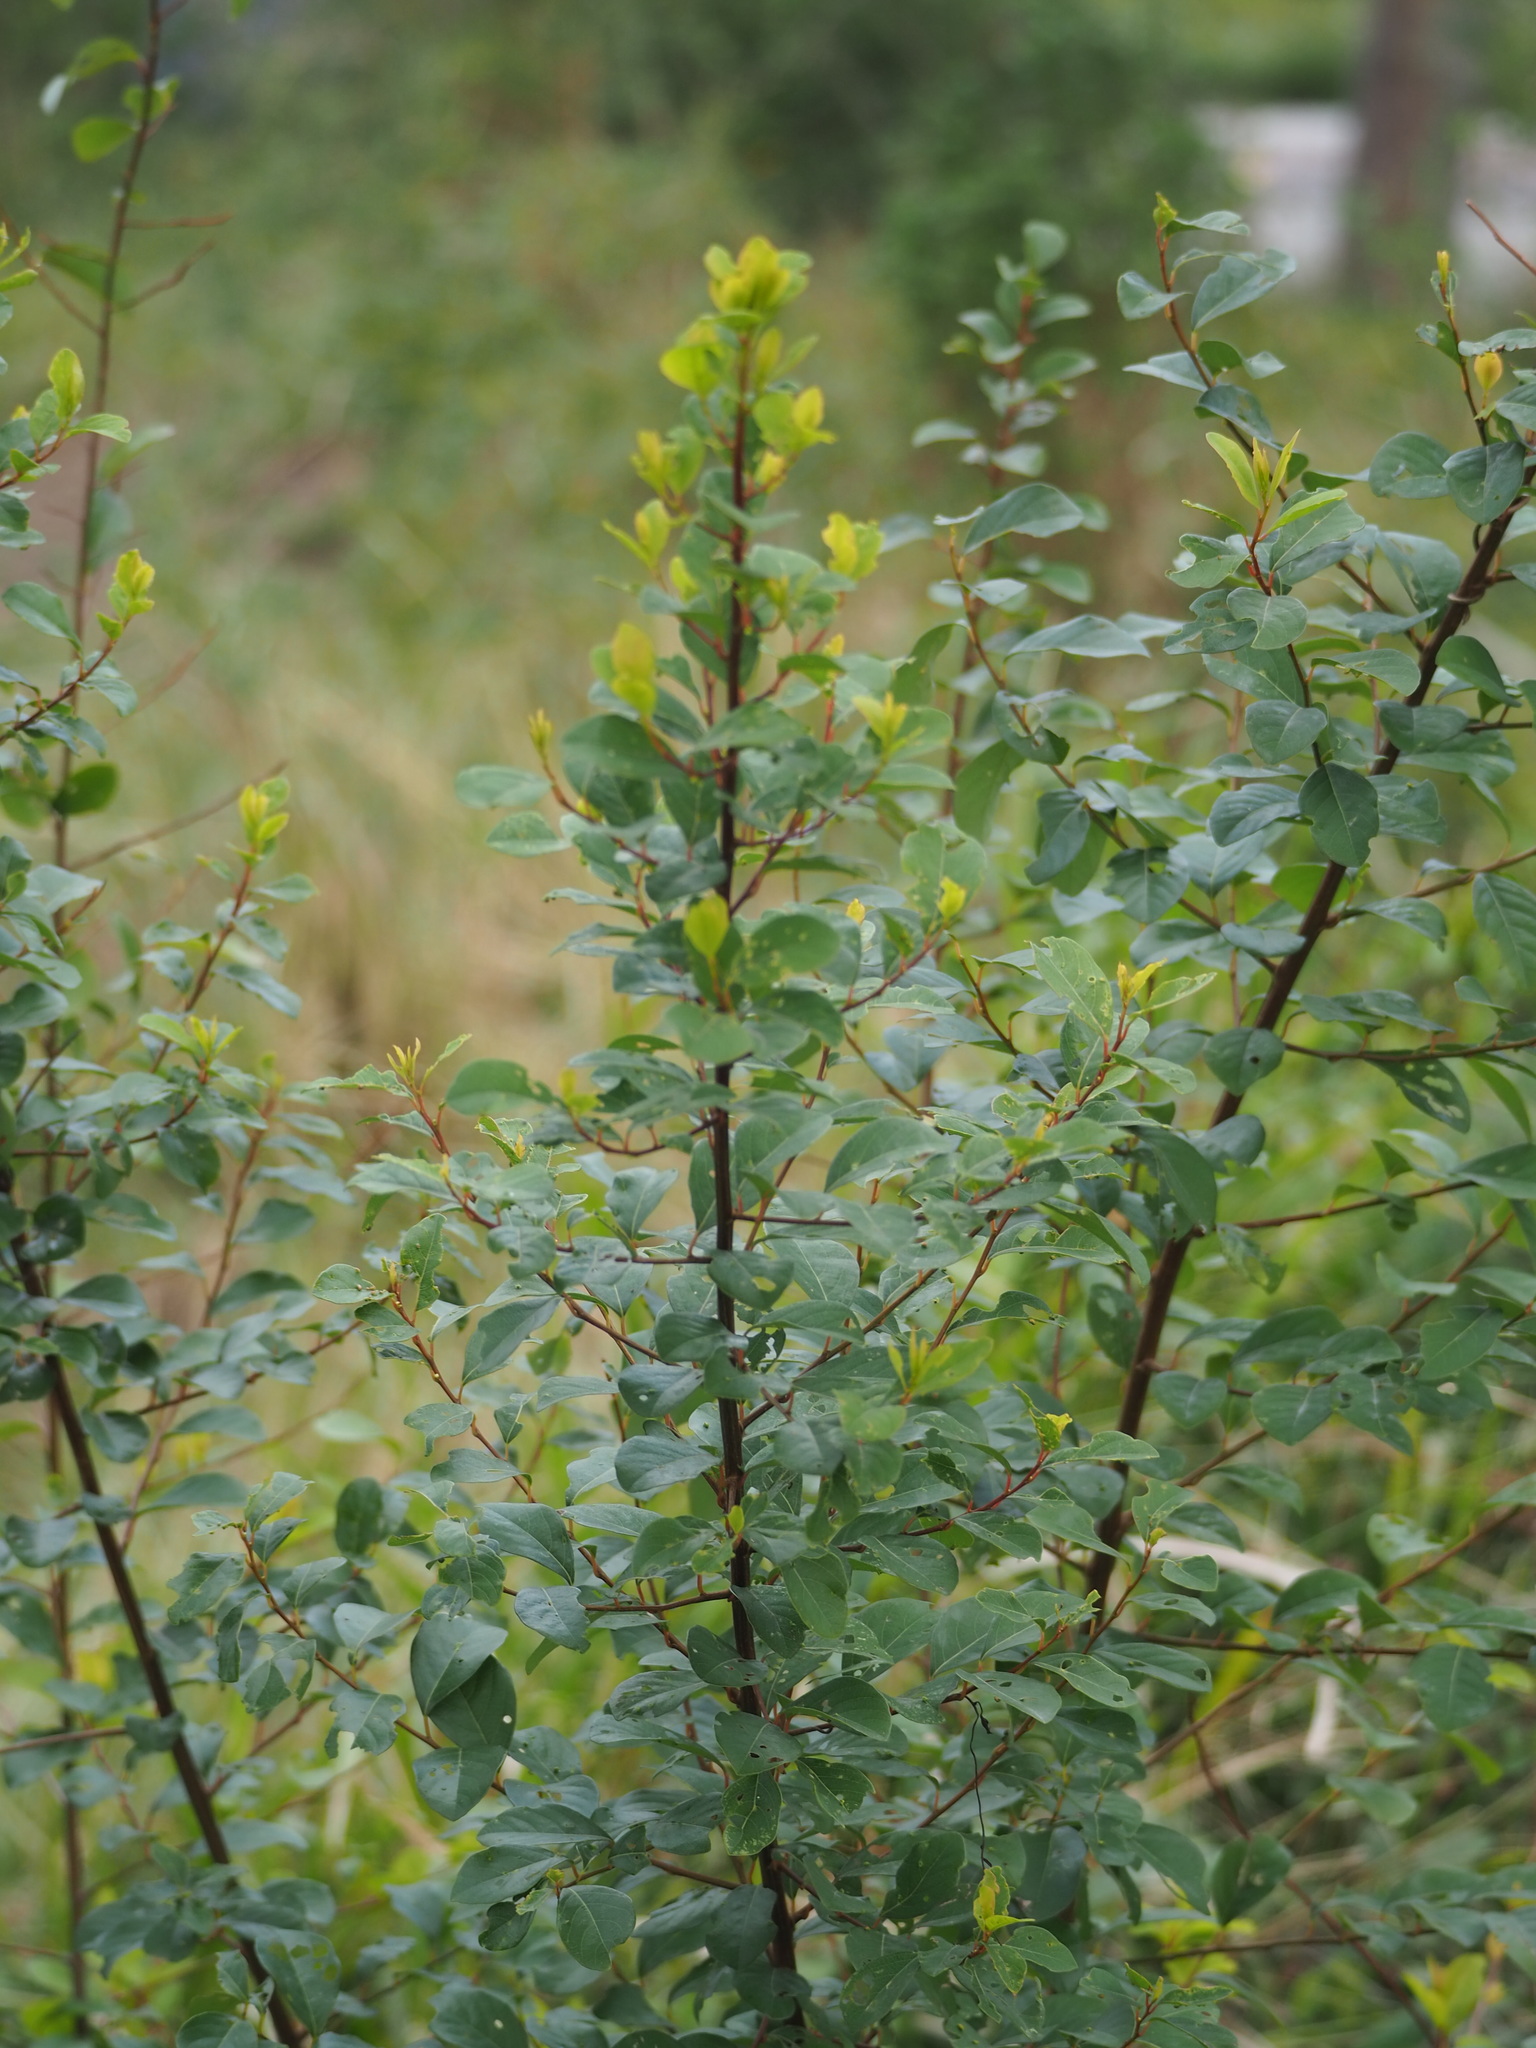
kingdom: Plantae
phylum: Tracheophyta
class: Magnoliopsida
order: Malpighiales
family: Phyllanthaceae
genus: Flueggea
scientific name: Flueggea virosa
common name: Common bushweed
